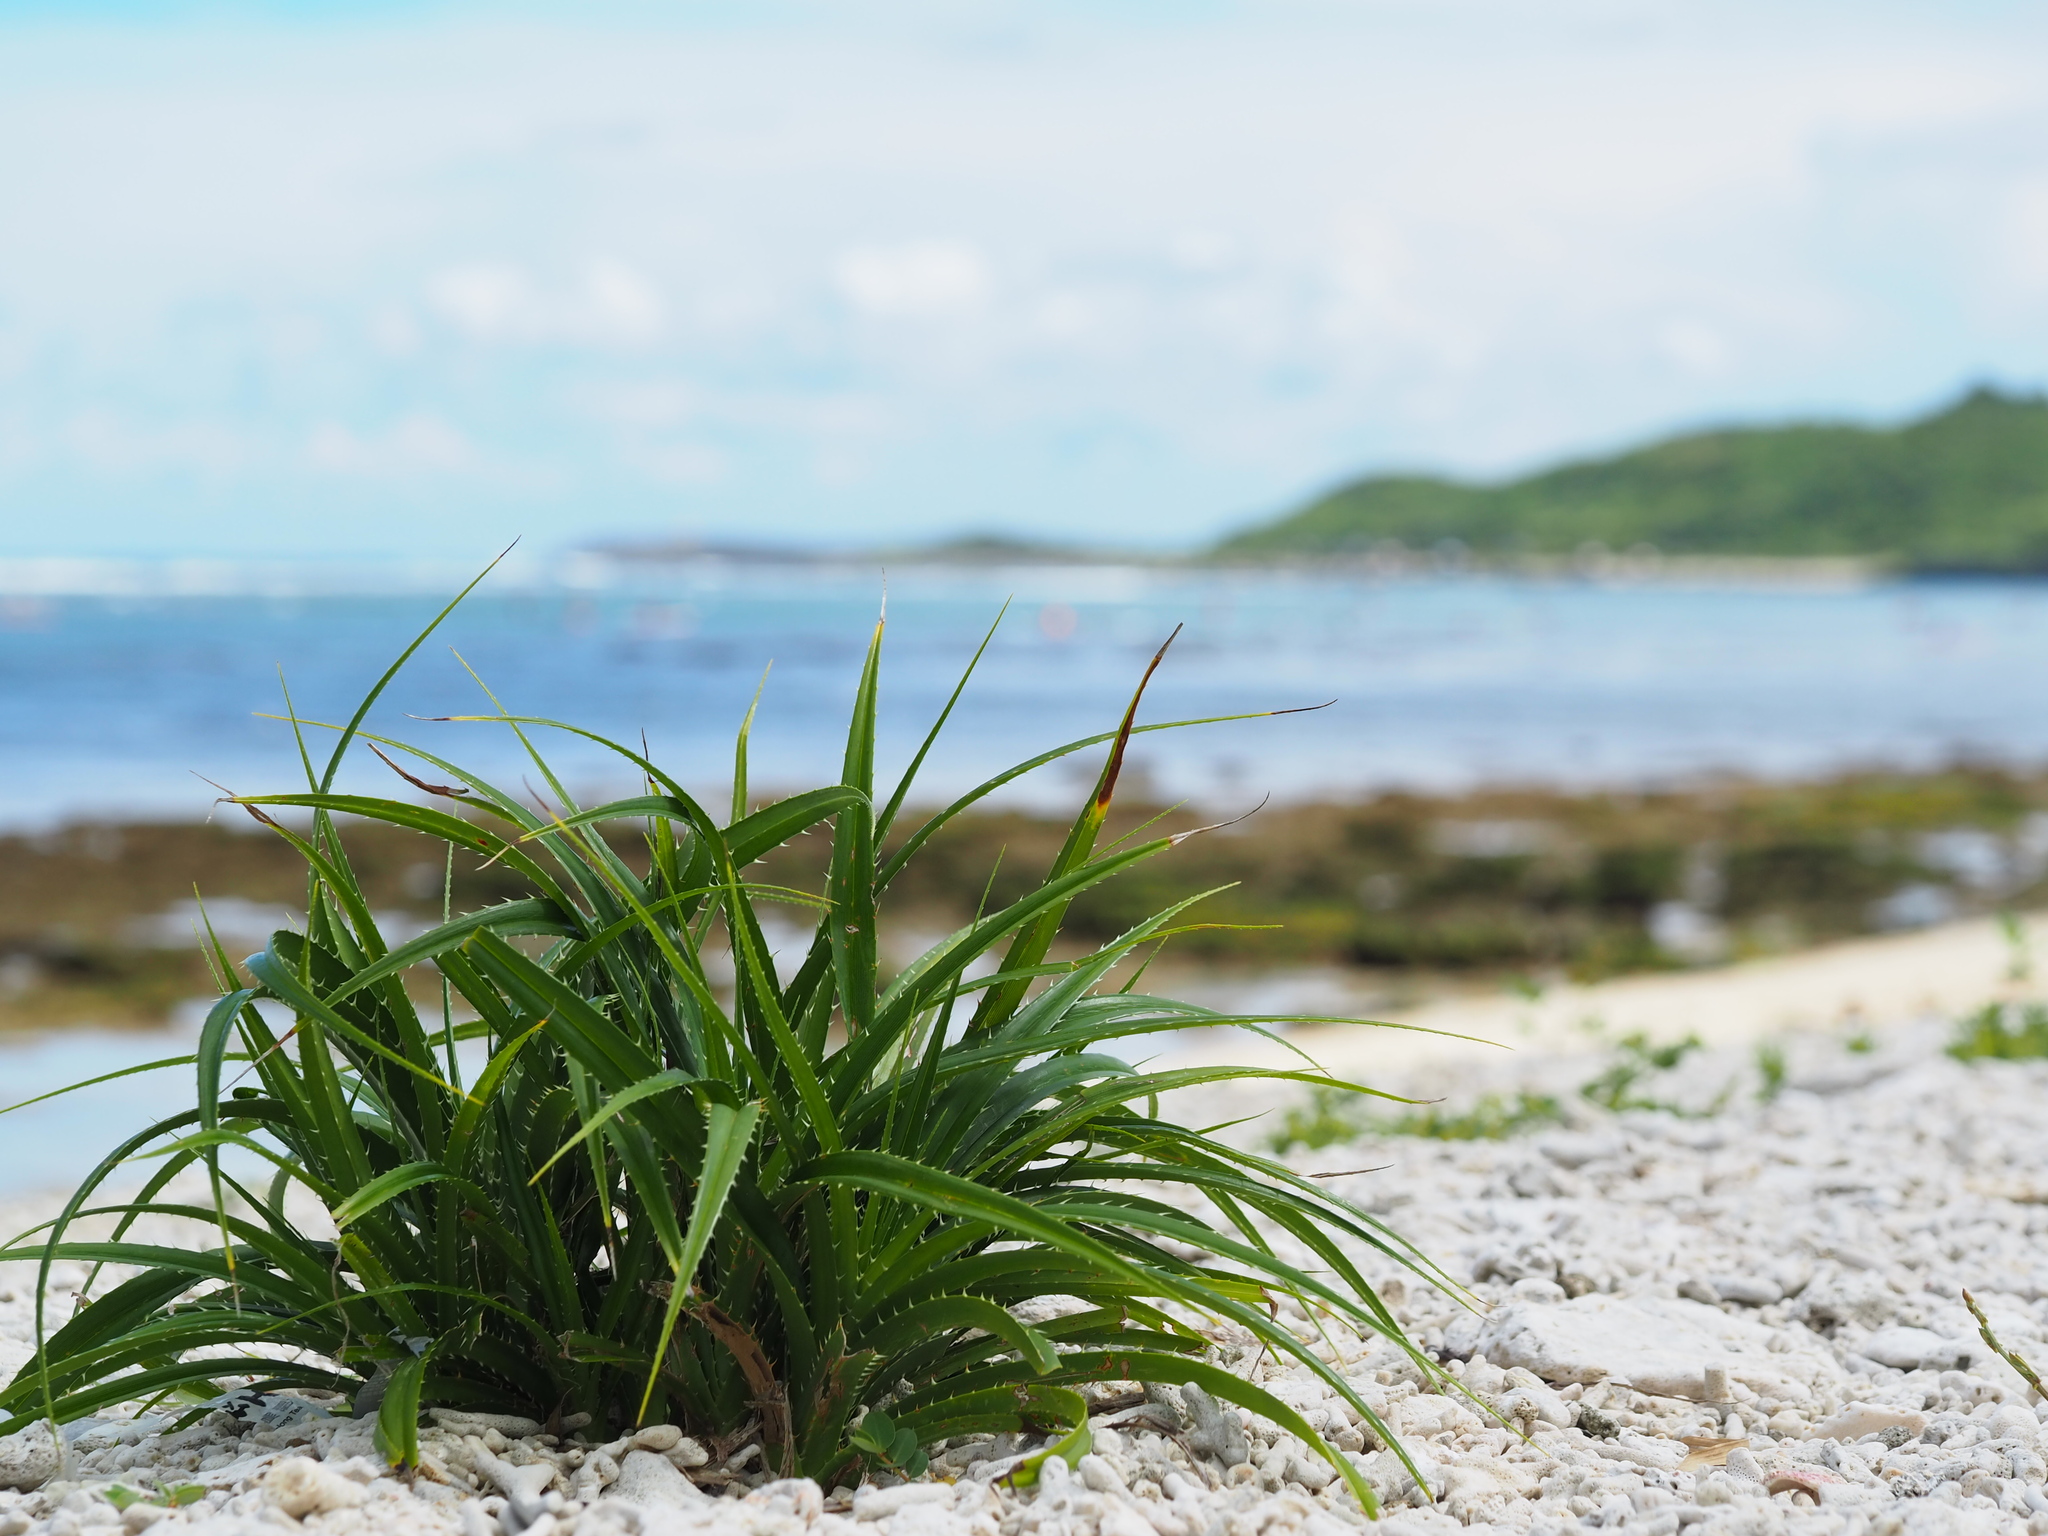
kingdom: Plantae
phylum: Tracheophyta
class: Liliopsida
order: Pandanales
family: Pandanaceae
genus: Pandanus
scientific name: Pandanus odorifer
